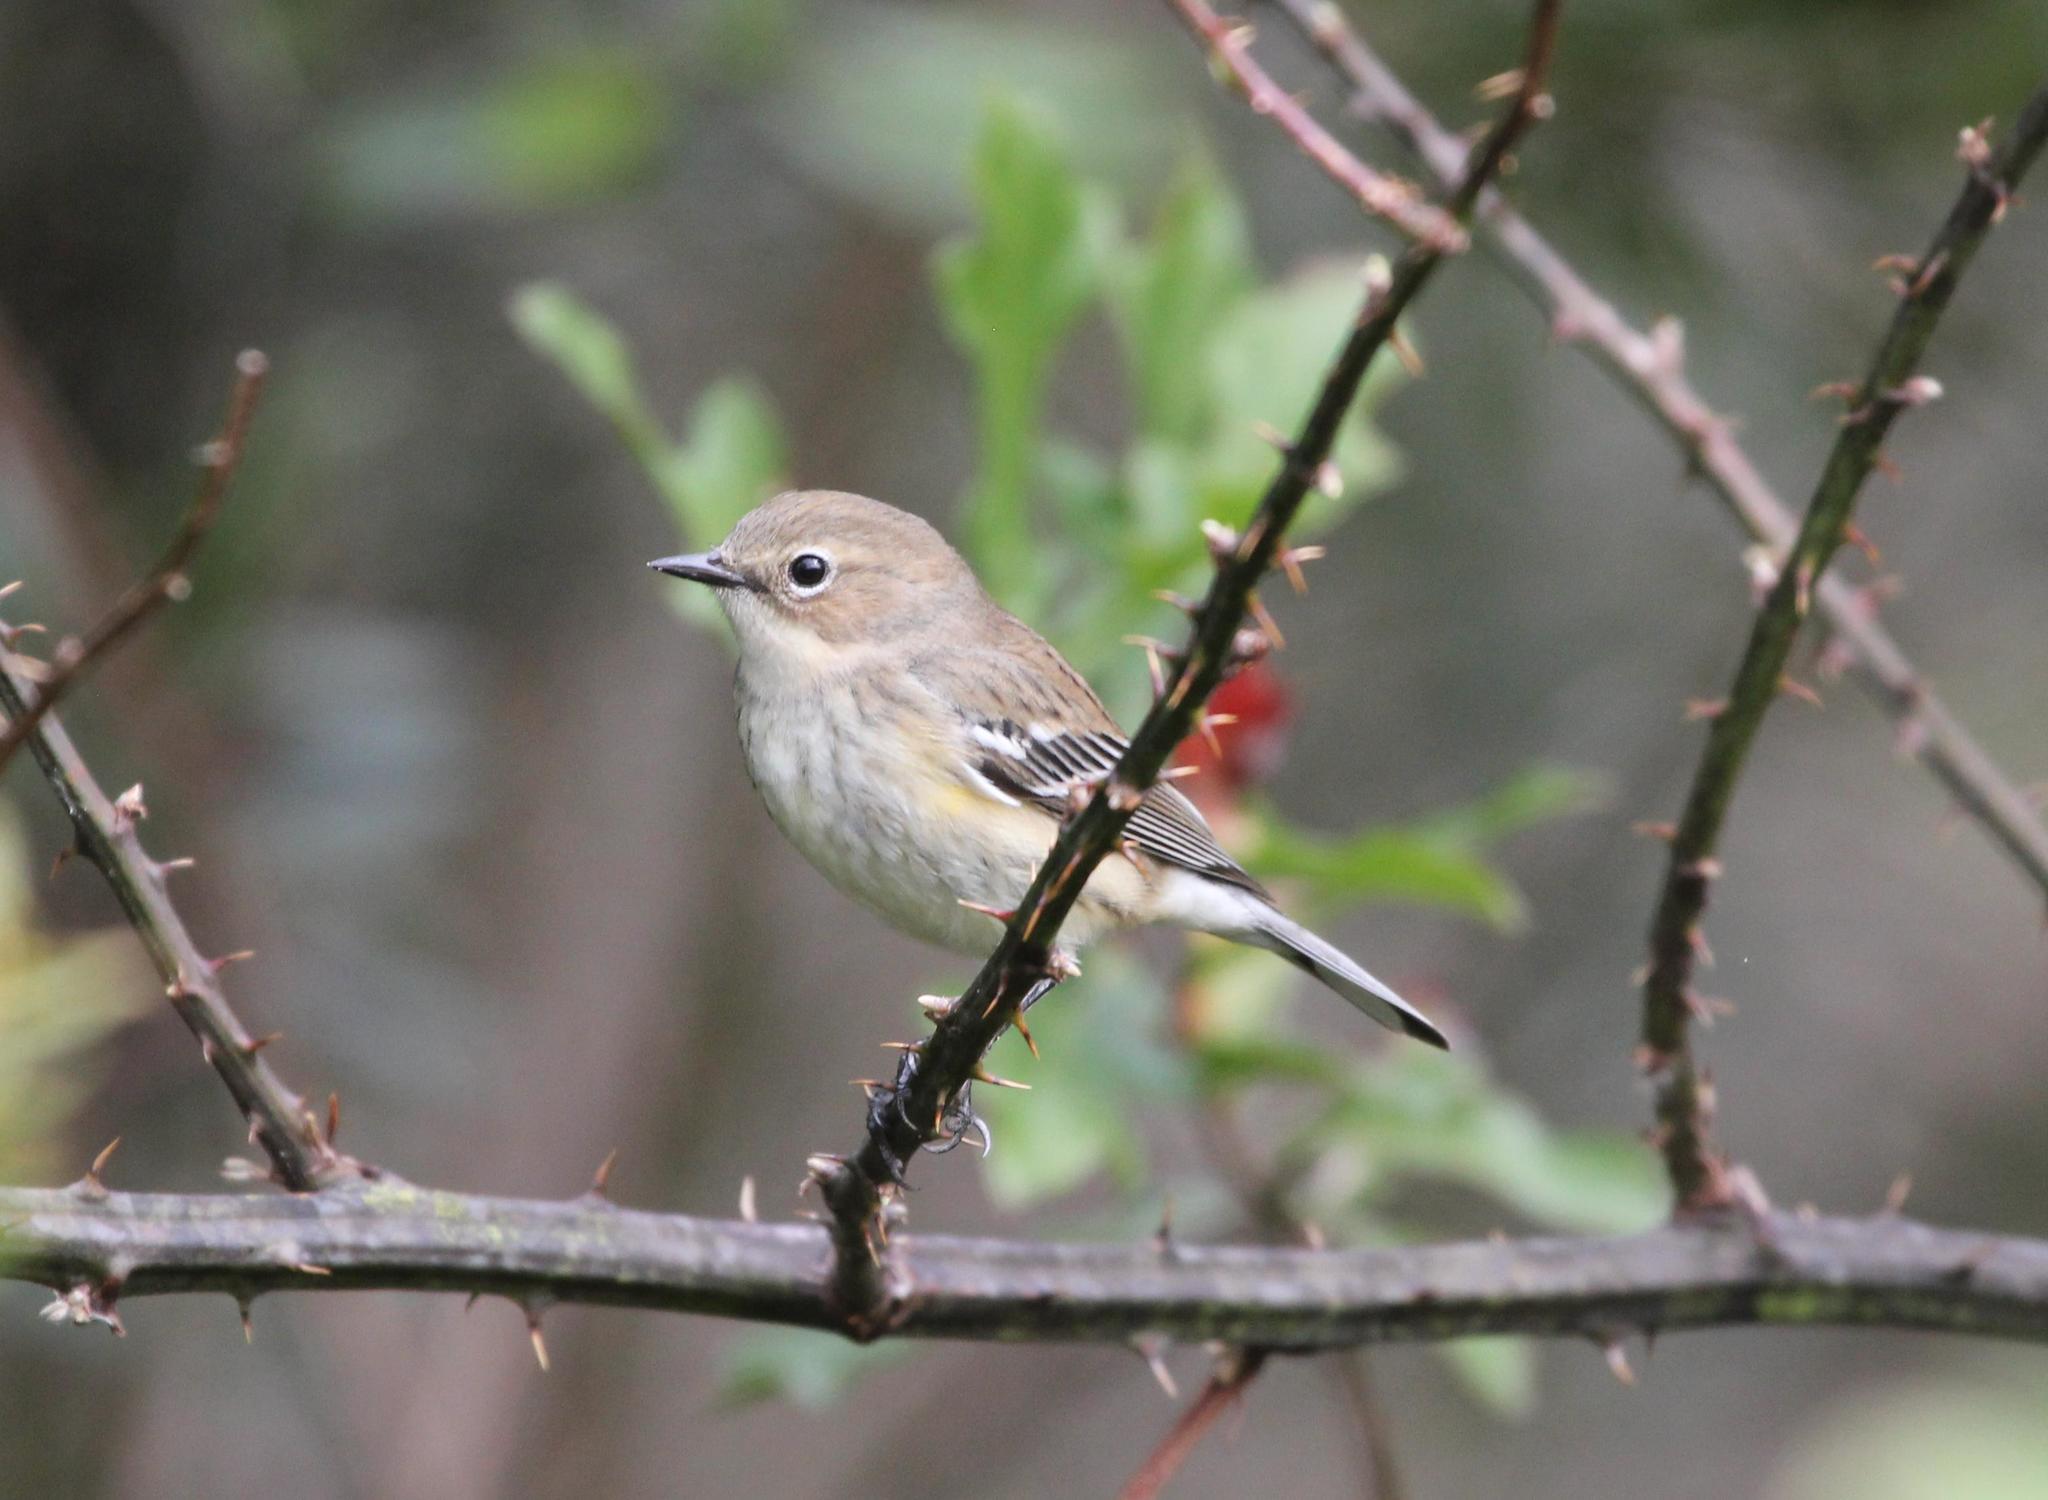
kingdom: Animalia
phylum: Chordata
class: Aves
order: Passeriformes
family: Parulidae
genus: Setophaga
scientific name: Setophaga coronata
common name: Myrtle warbler
